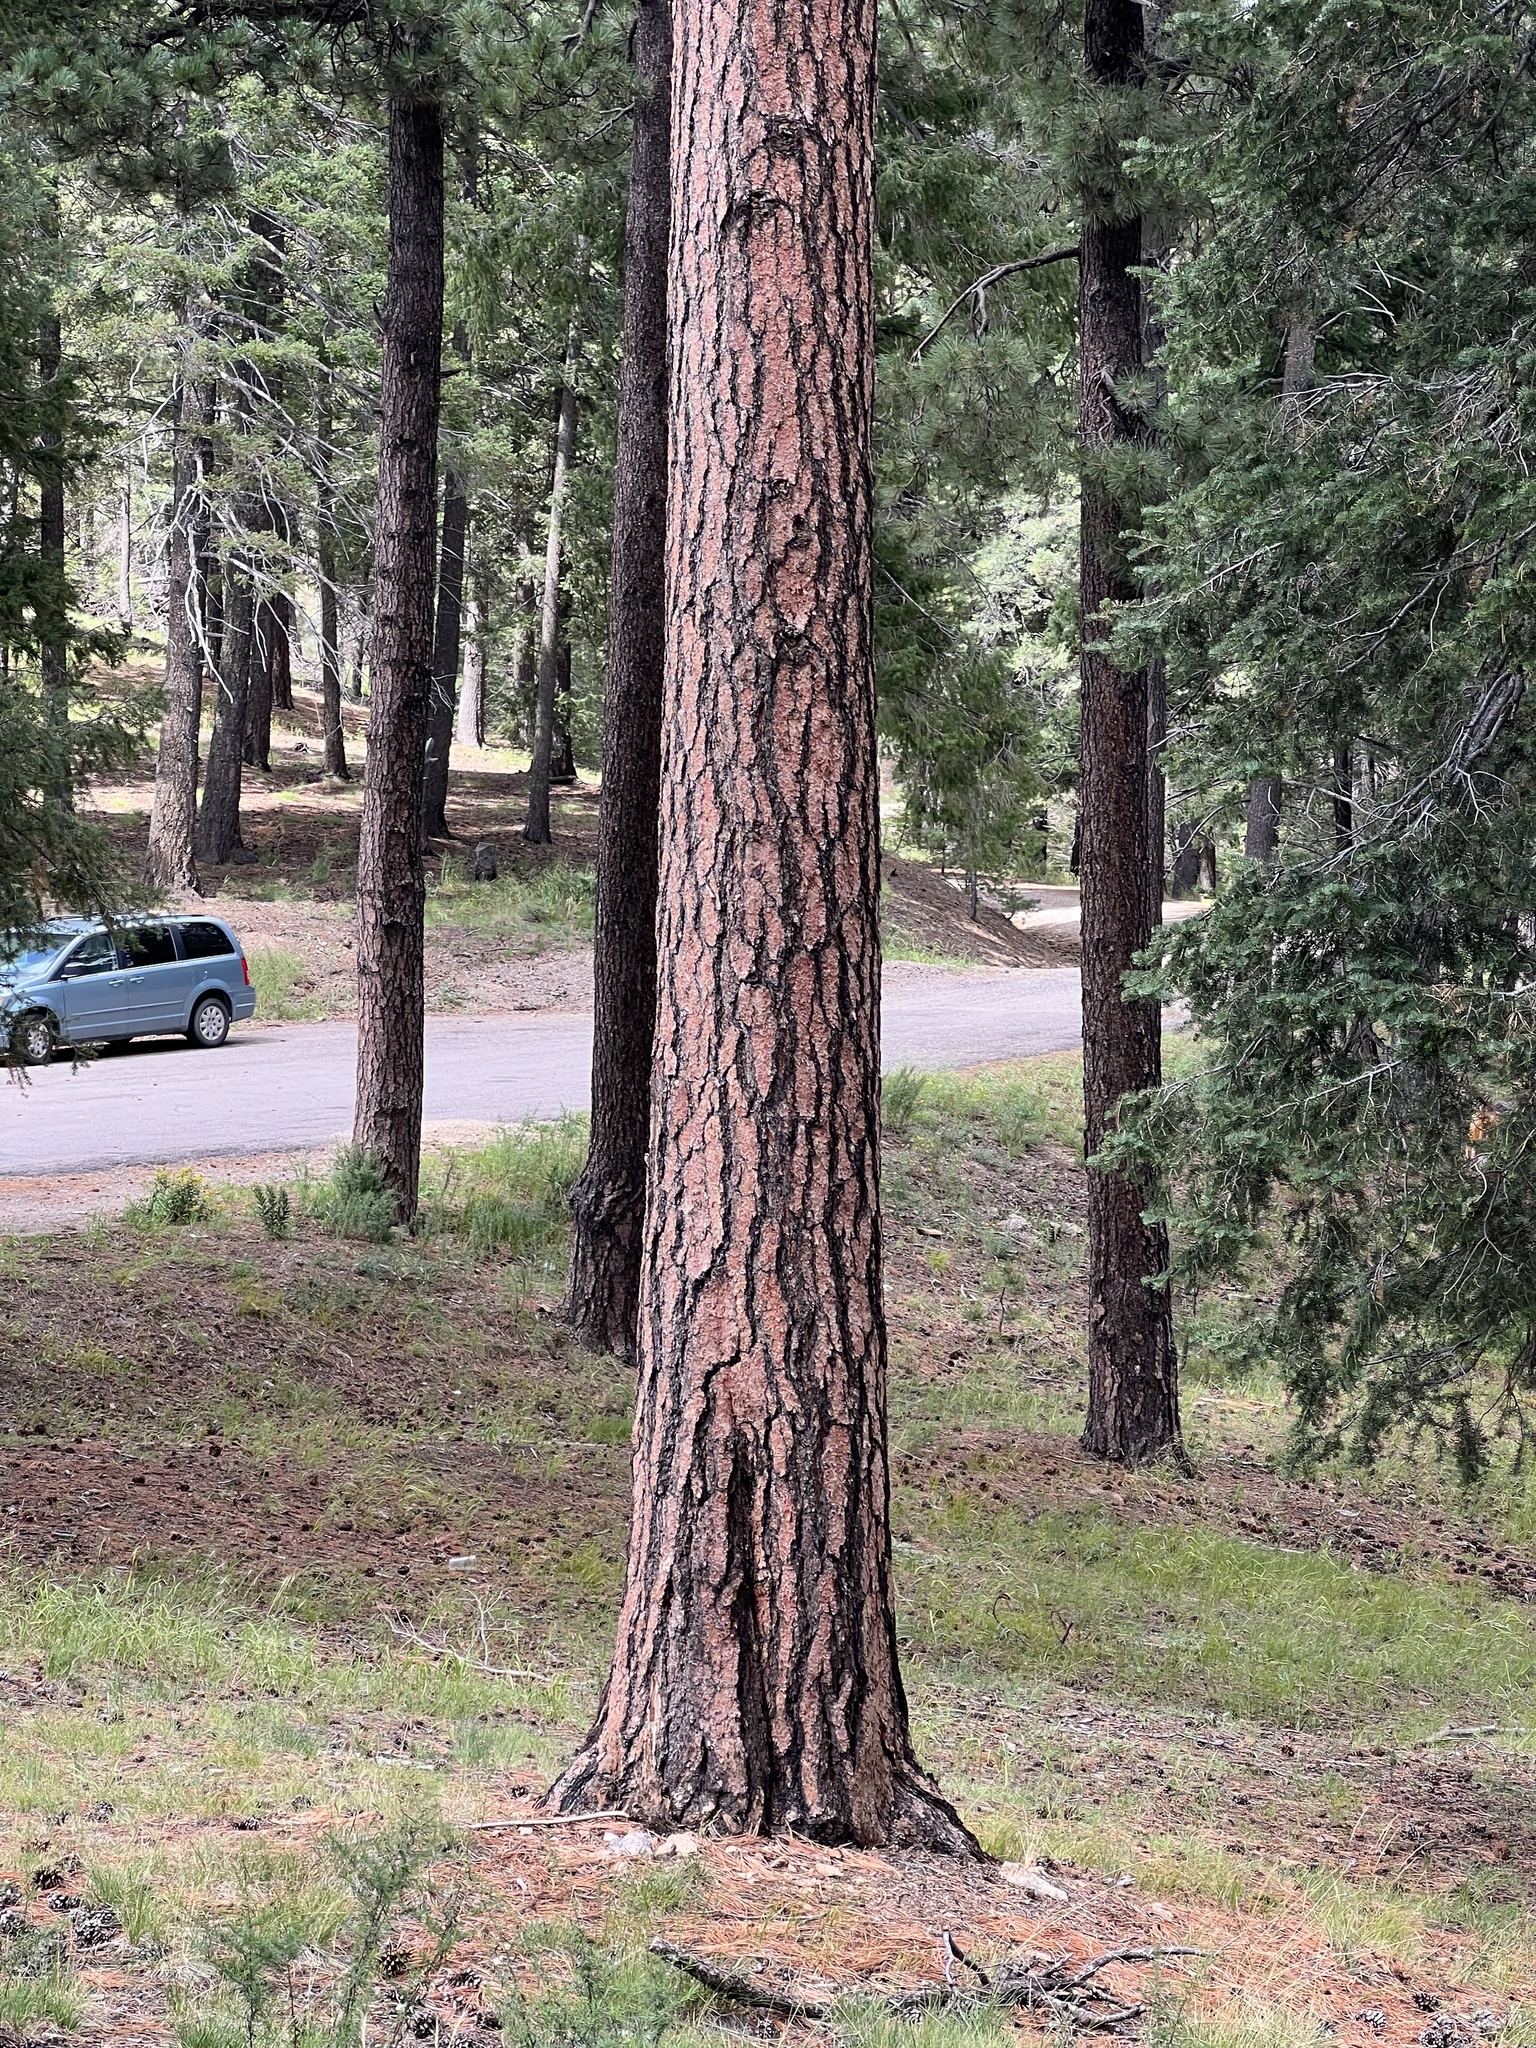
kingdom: Plantae
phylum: Tracheophyta
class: Pinopsida
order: Pinales
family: Pinaceae
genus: Pinus
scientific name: Pinus ponderosa
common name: Western yellow-pine
